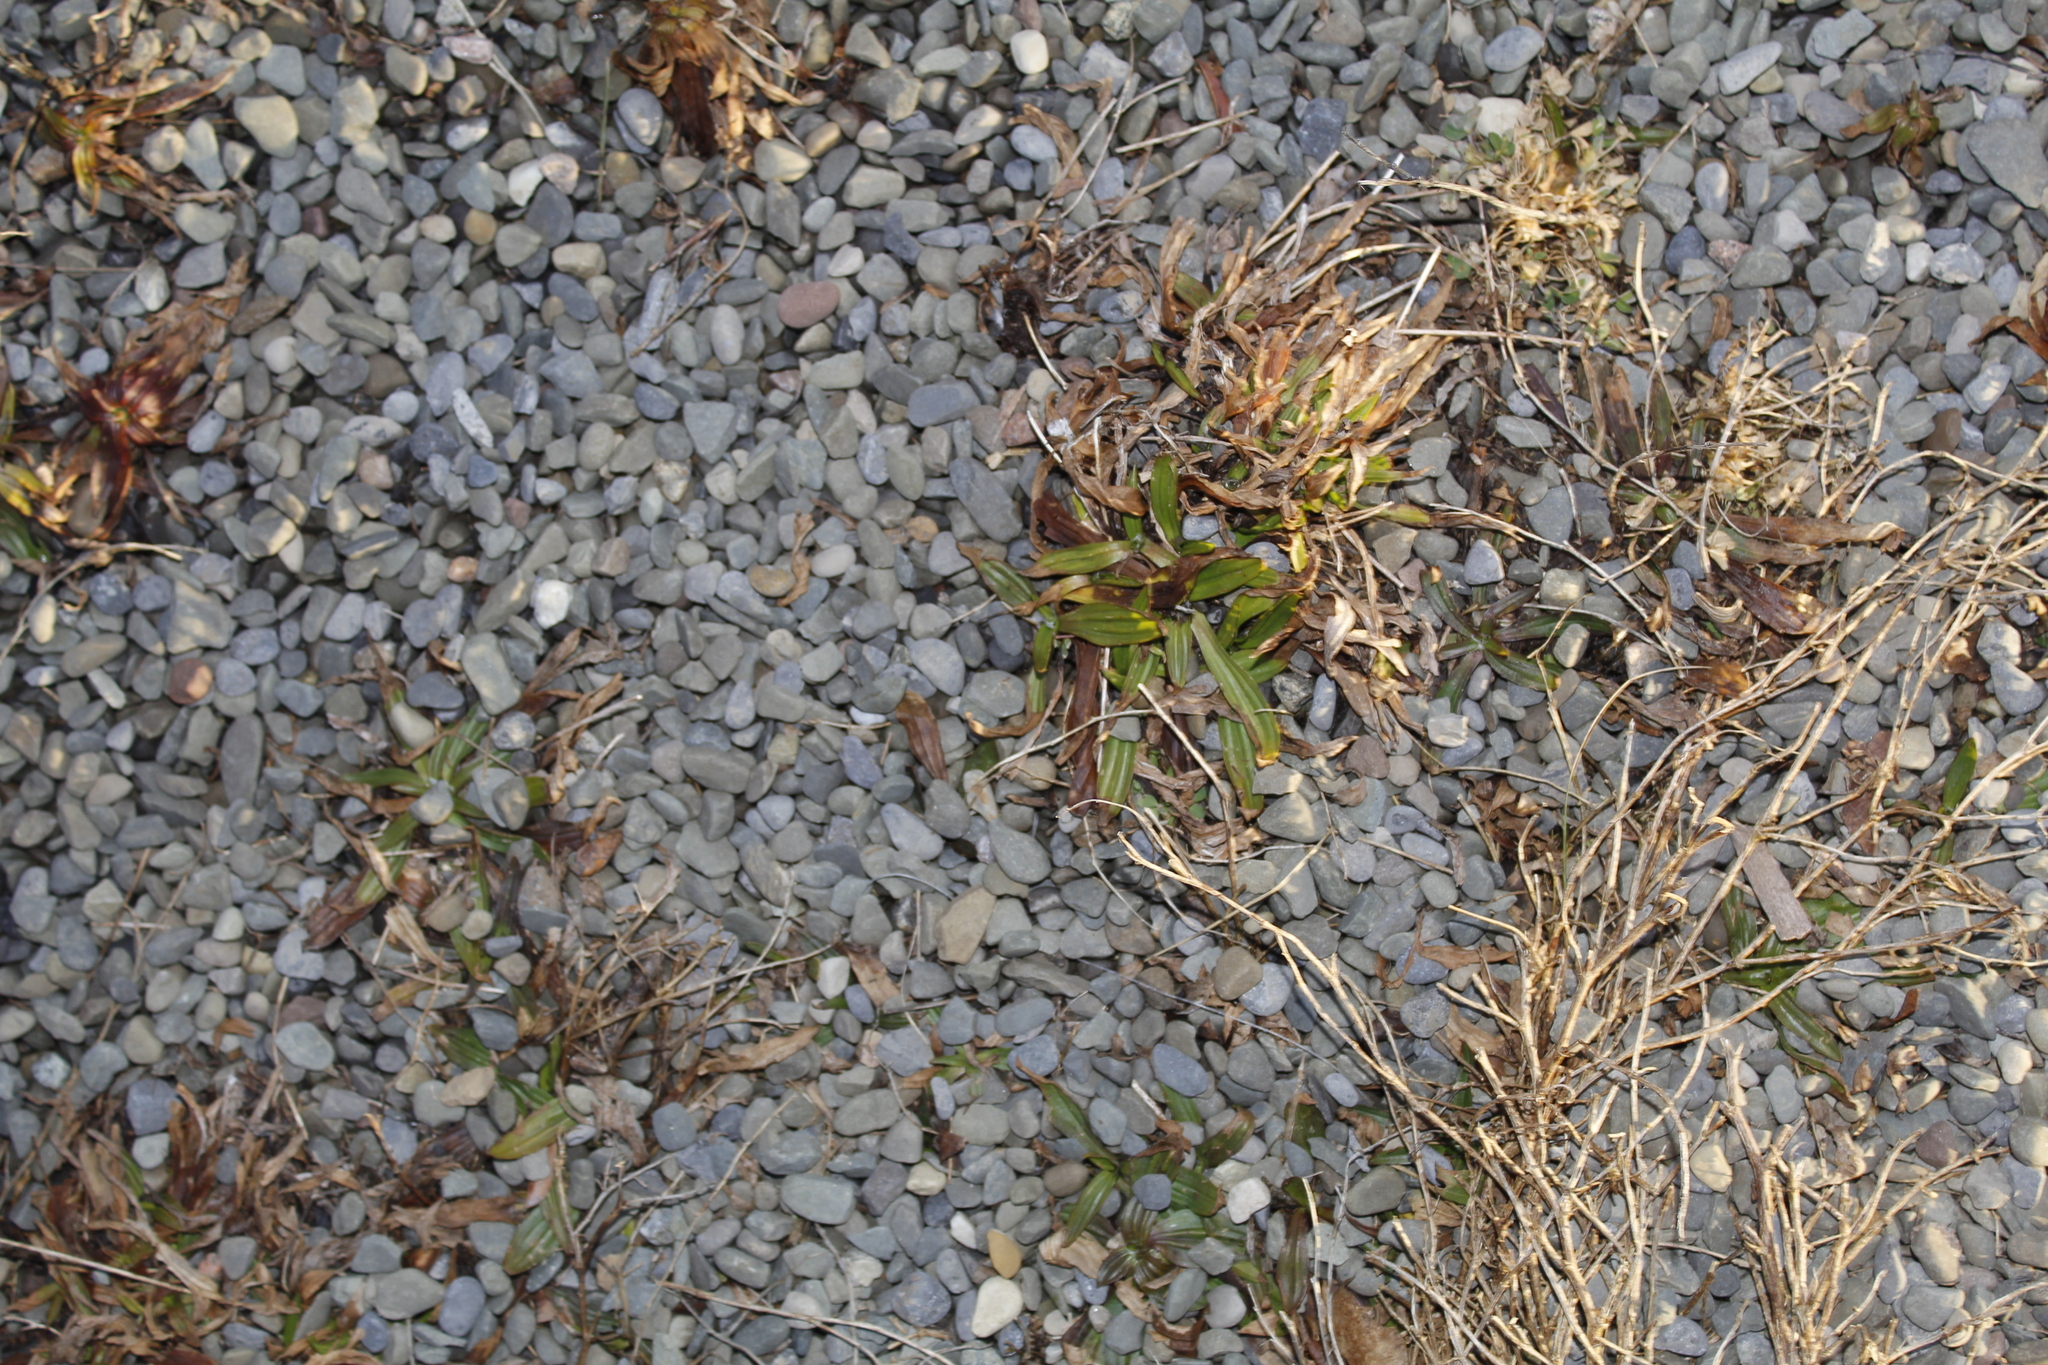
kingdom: Plantae
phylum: Tracheophyta
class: Magnoliopsida
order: Lamiales
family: Plantaginaceae
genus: Plantago
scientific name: Plantago lanceolata
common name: Ribwort plantain
